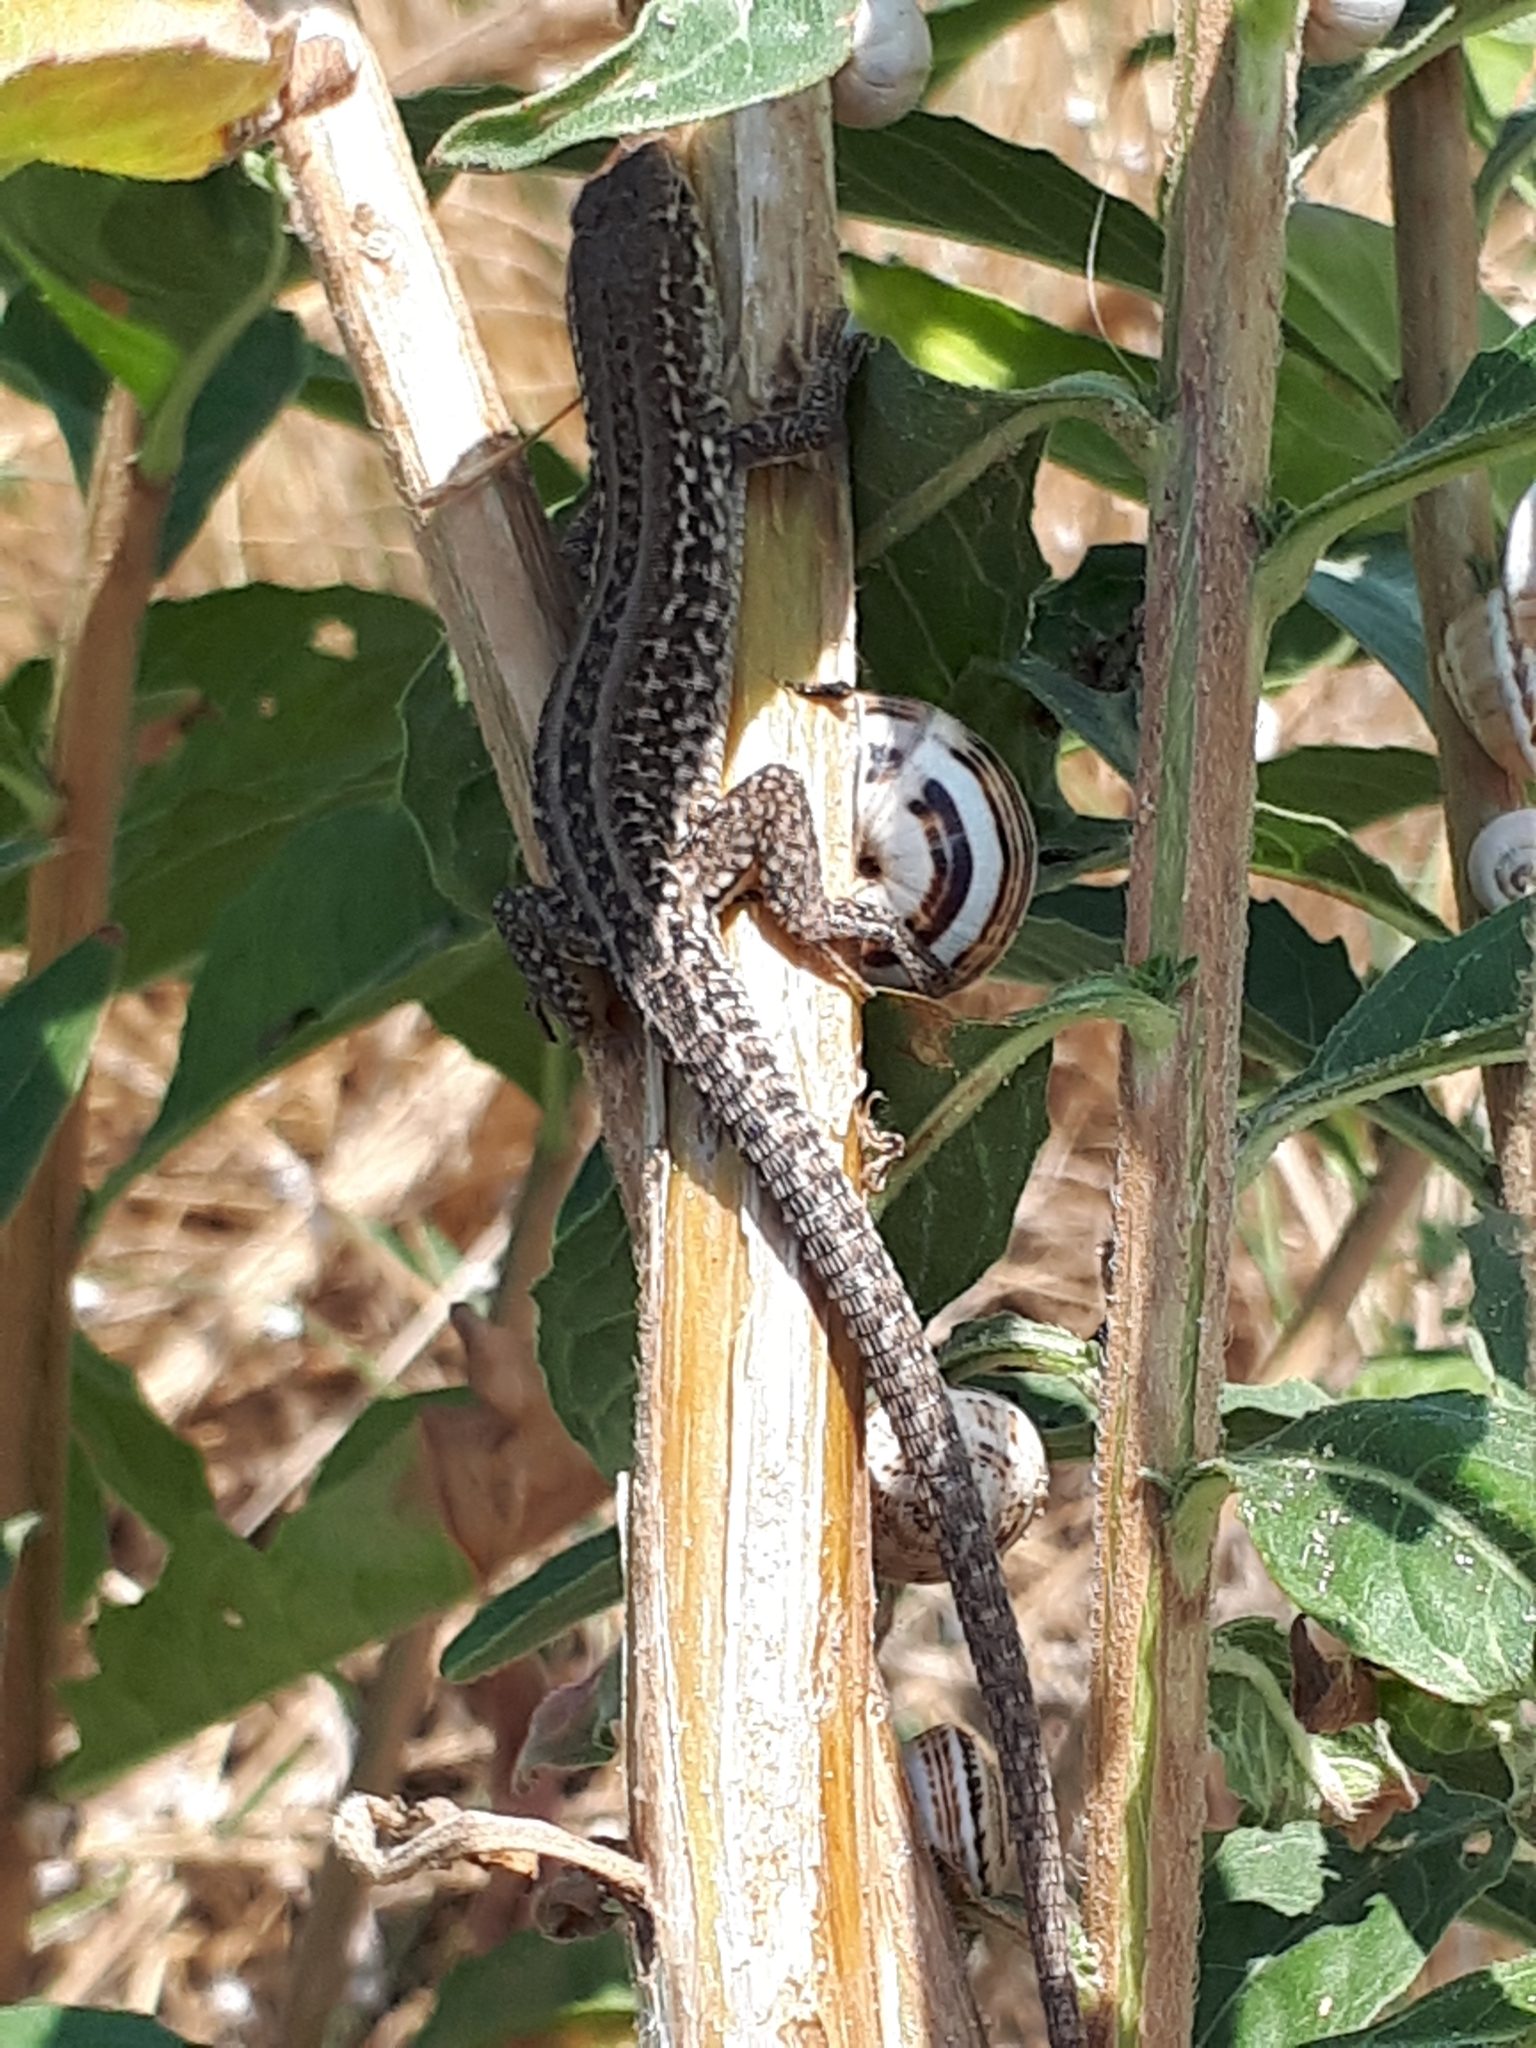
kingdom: Animalia
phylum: Chordata
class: Squamata
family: Lacertidae
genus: Podarcis
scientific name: Podarcis siculus
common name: Italian wall lizard
